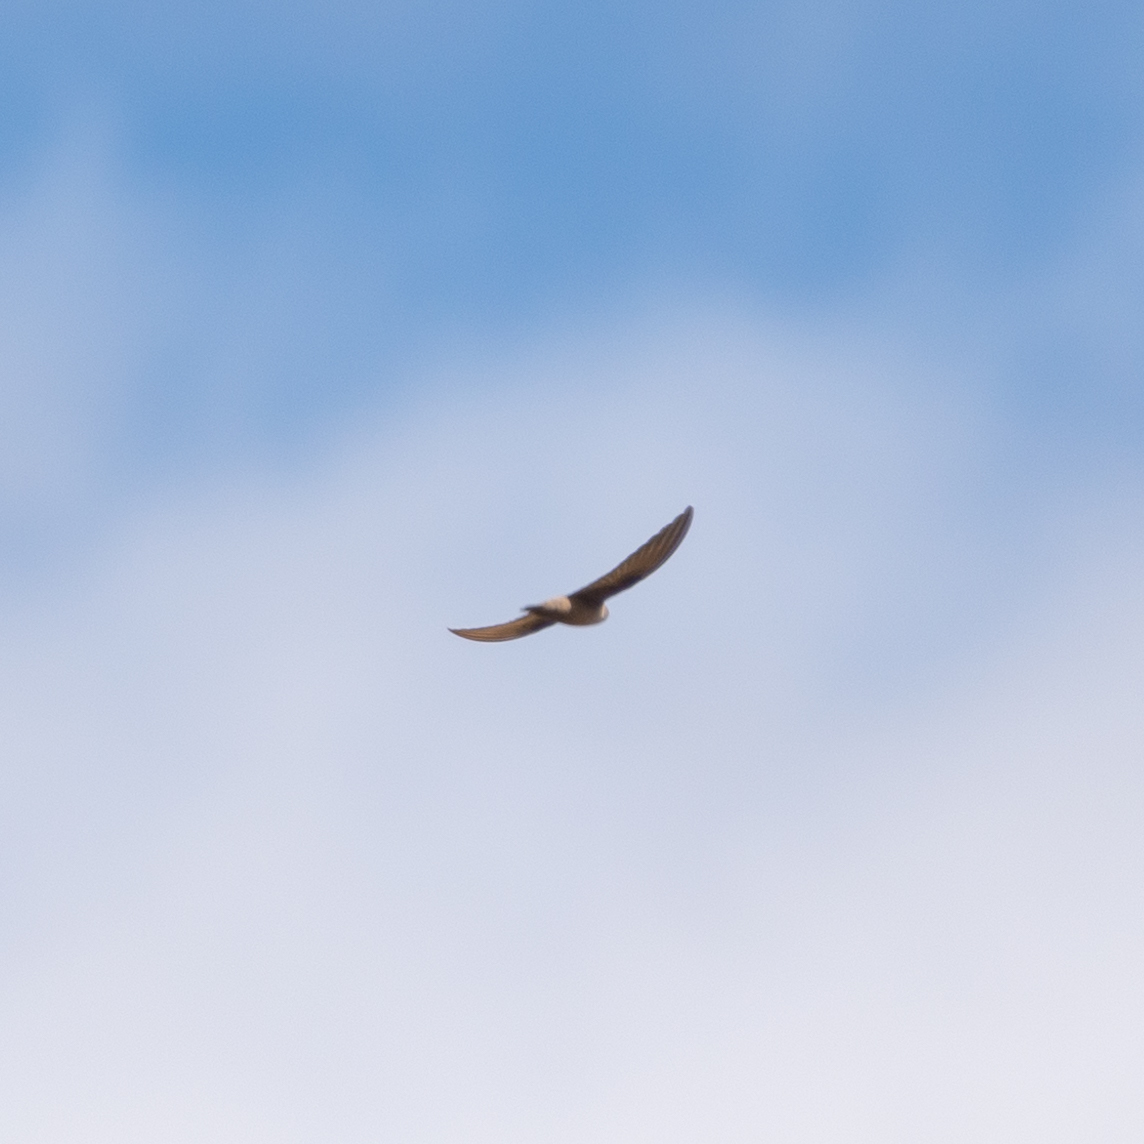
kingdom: Animalia
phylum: Chordata
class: Aves
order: Passeriformes
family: Hirundinidae
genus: Ptyonoprogne
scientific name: Ptyonoprogne rupestris
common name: Eurasian crag martin
